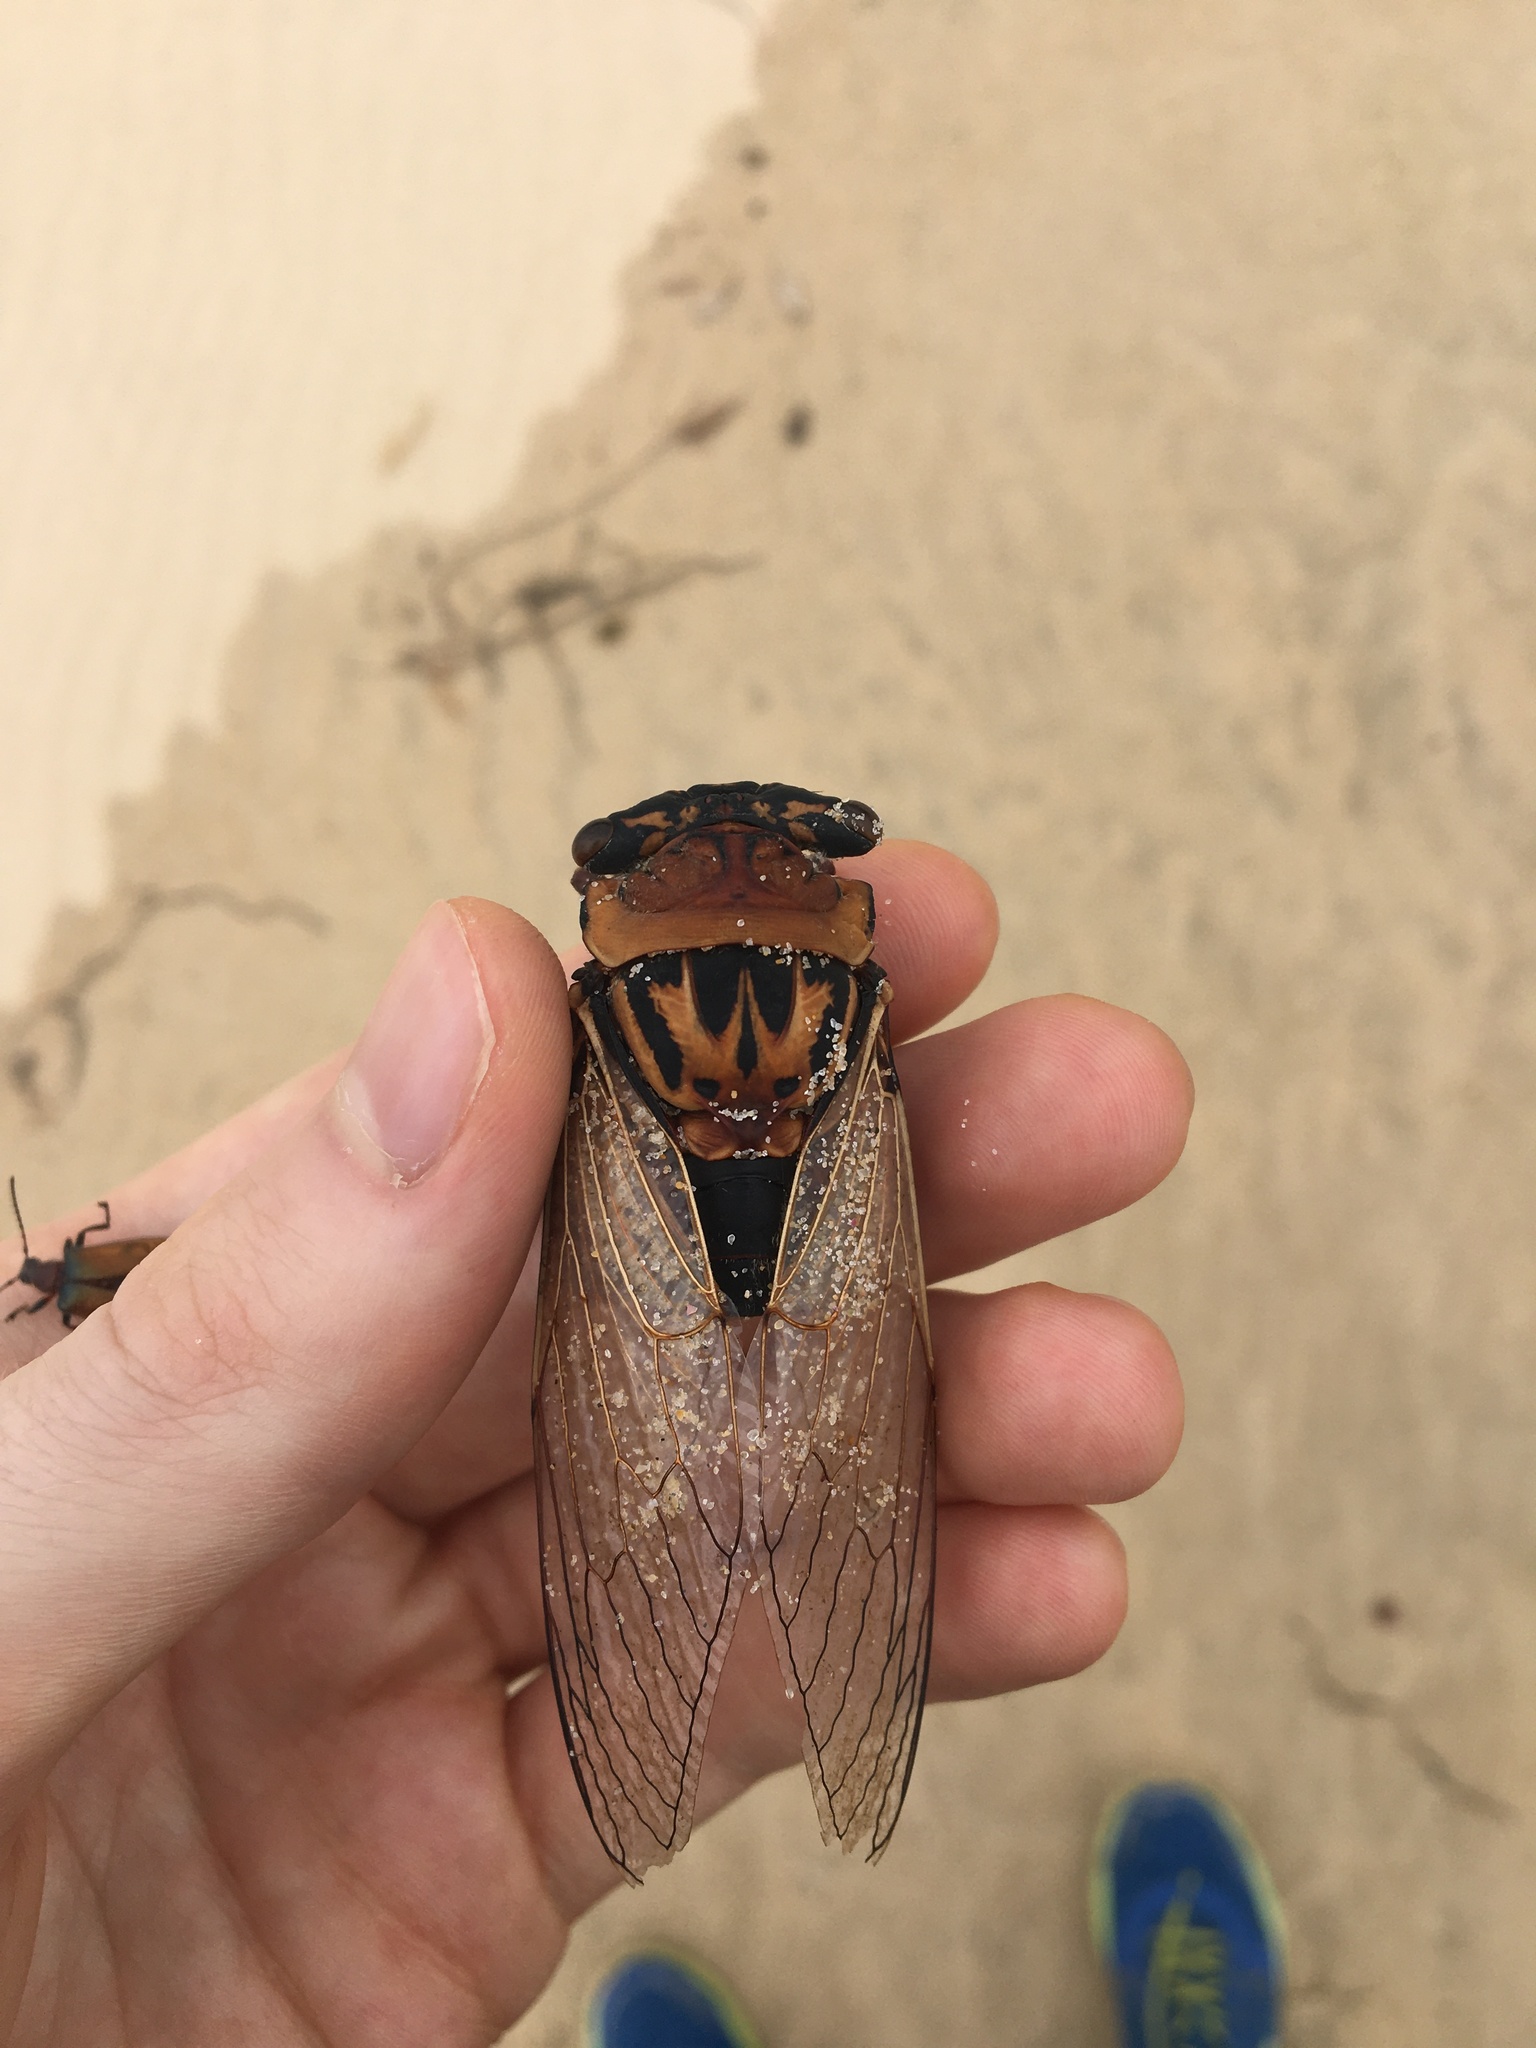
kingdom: Animalia
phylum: Arthropoda
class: Insecta
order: Hemiptera
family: Cicadidae
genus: Thopha
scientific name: Thopha saccata
